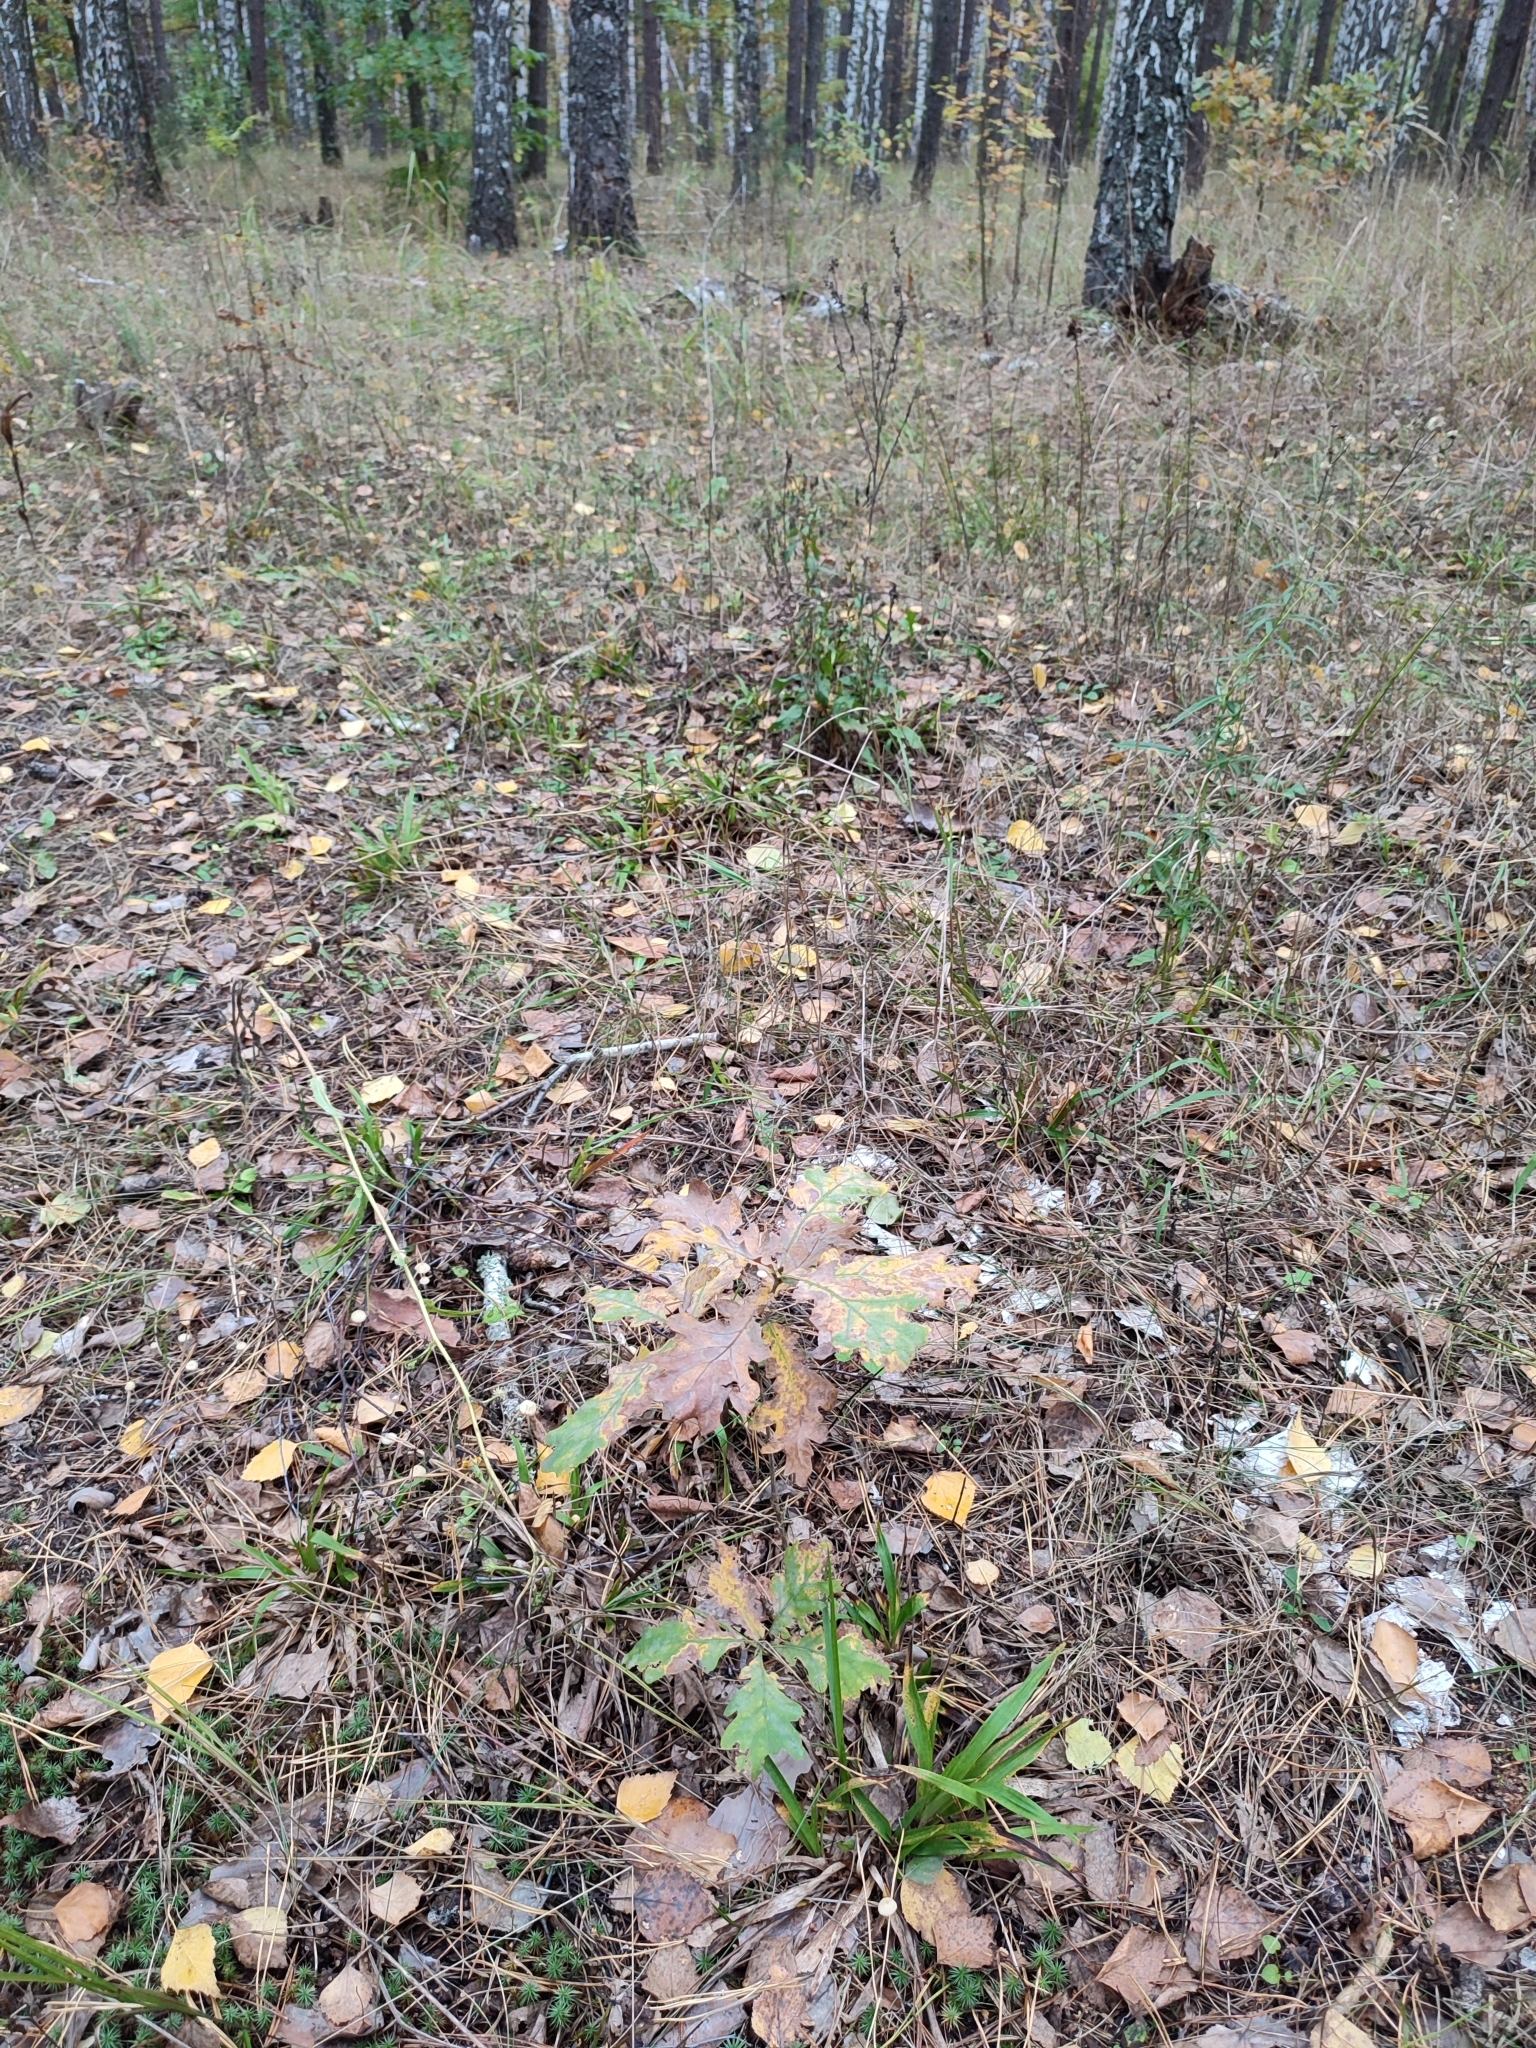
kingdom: Plantae
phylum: Tracheophyta
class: Magnoliopsida
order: Fagales
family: Fagaceae
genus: Quercus
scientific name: Quercus robur
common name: Pedunculate oak
